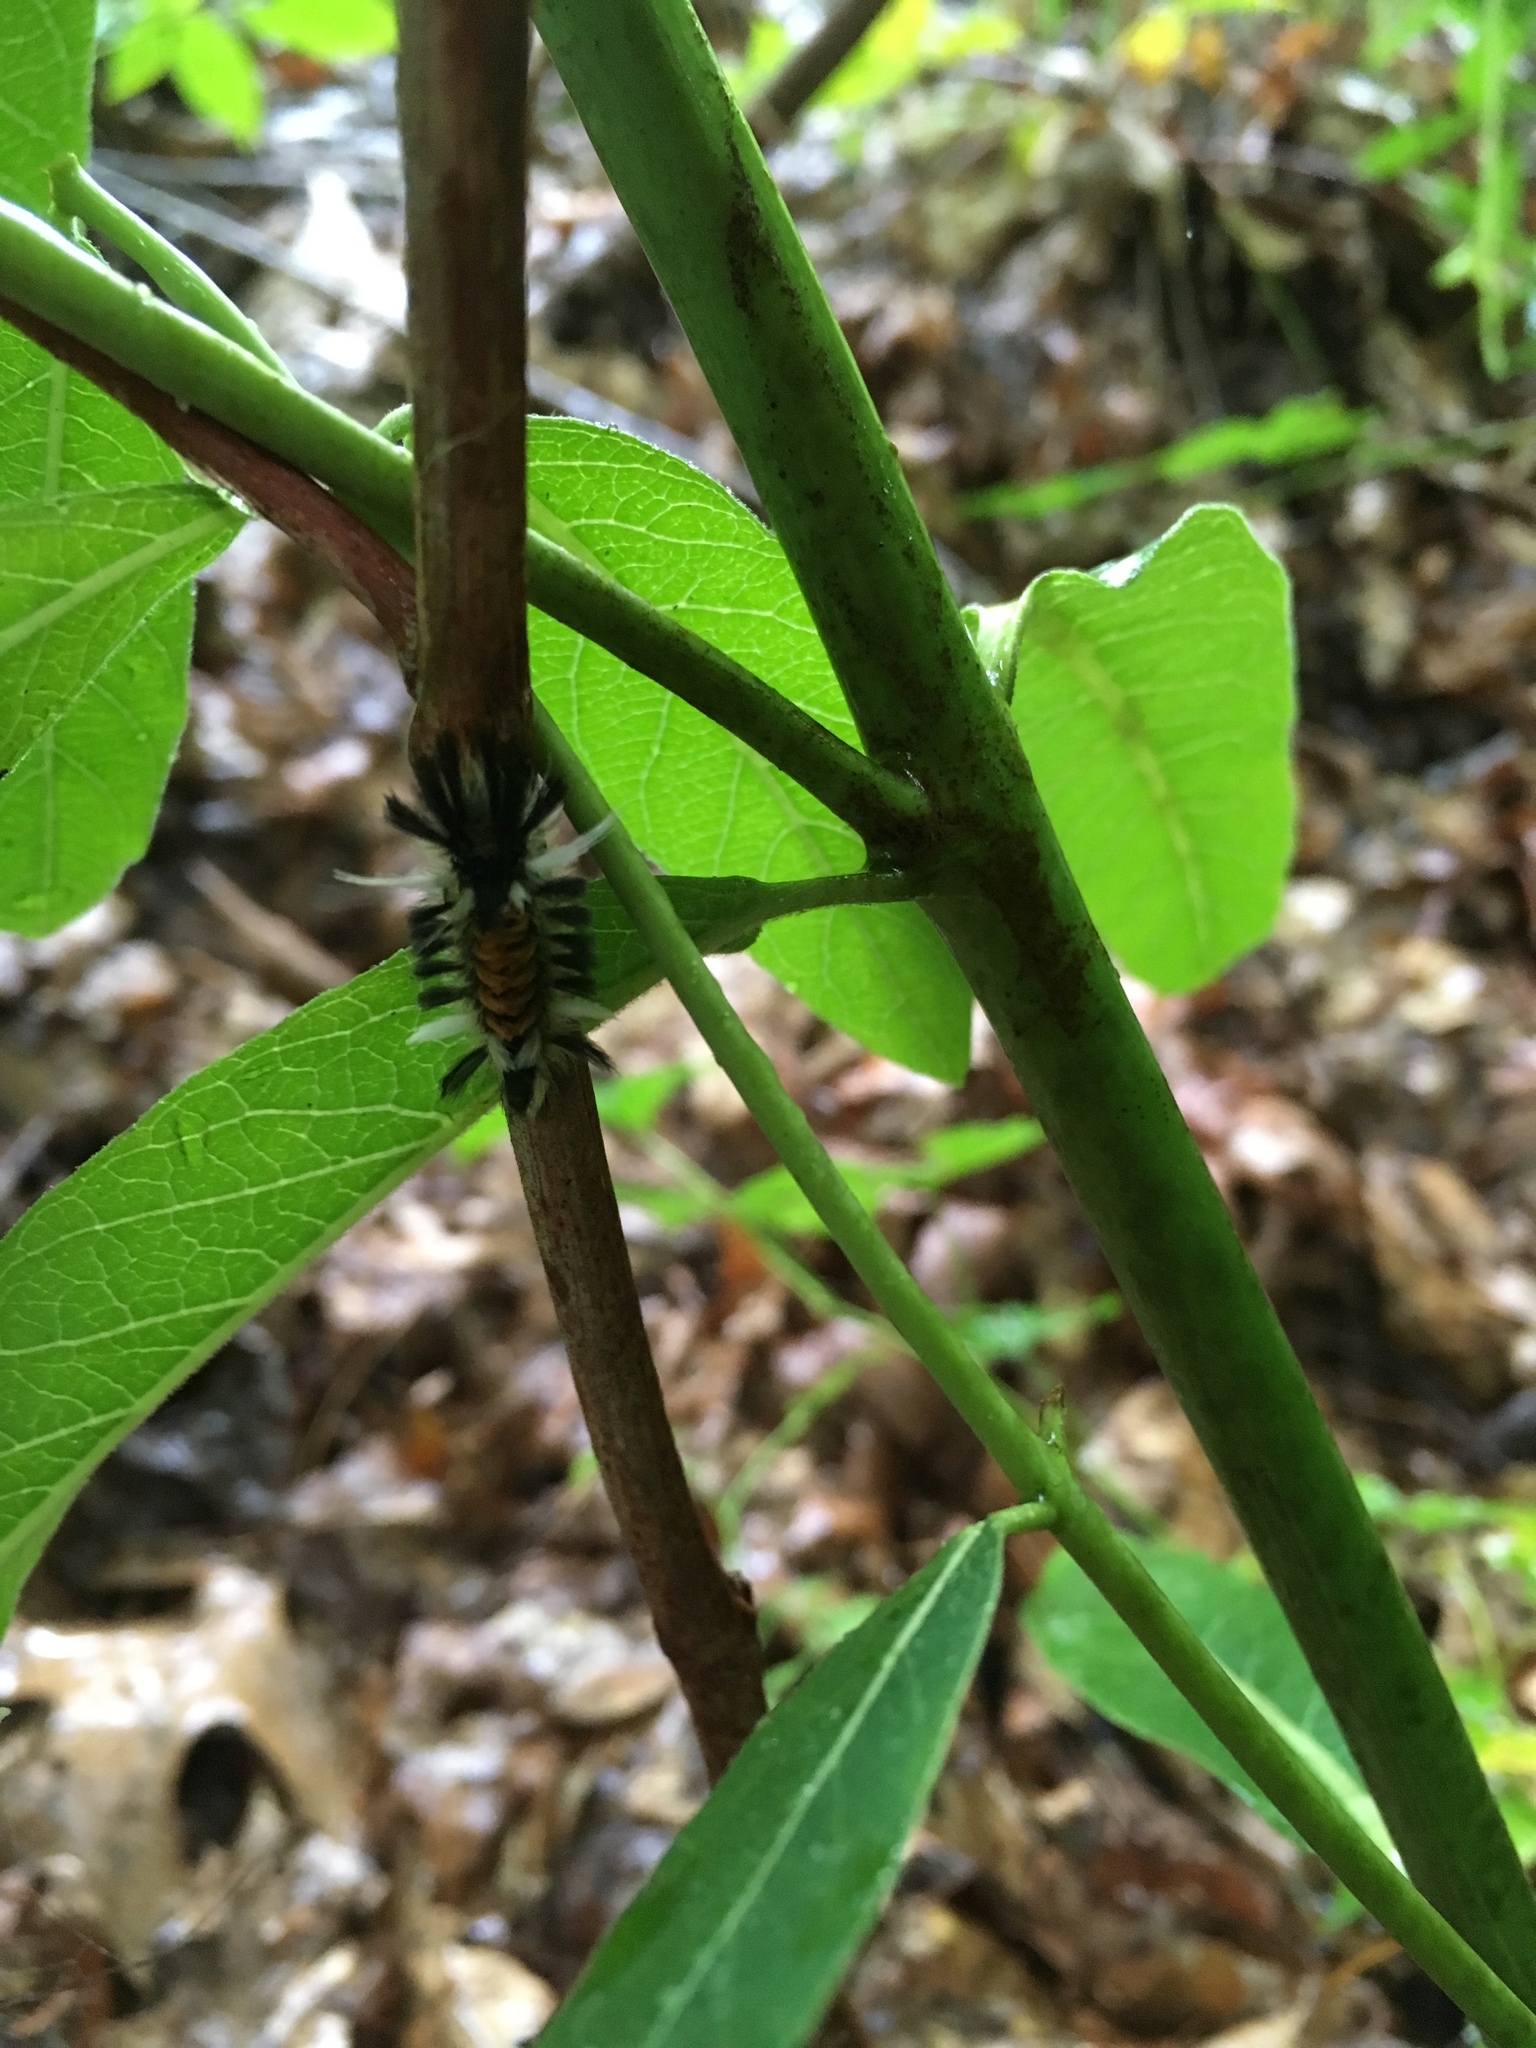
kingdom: Animalia
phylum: Arthropoda
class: Insecta
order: Lepidoptera
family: Erebidae
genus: Euchaetes
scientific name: Euchaetes egle
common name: Milkweed tussock moth
